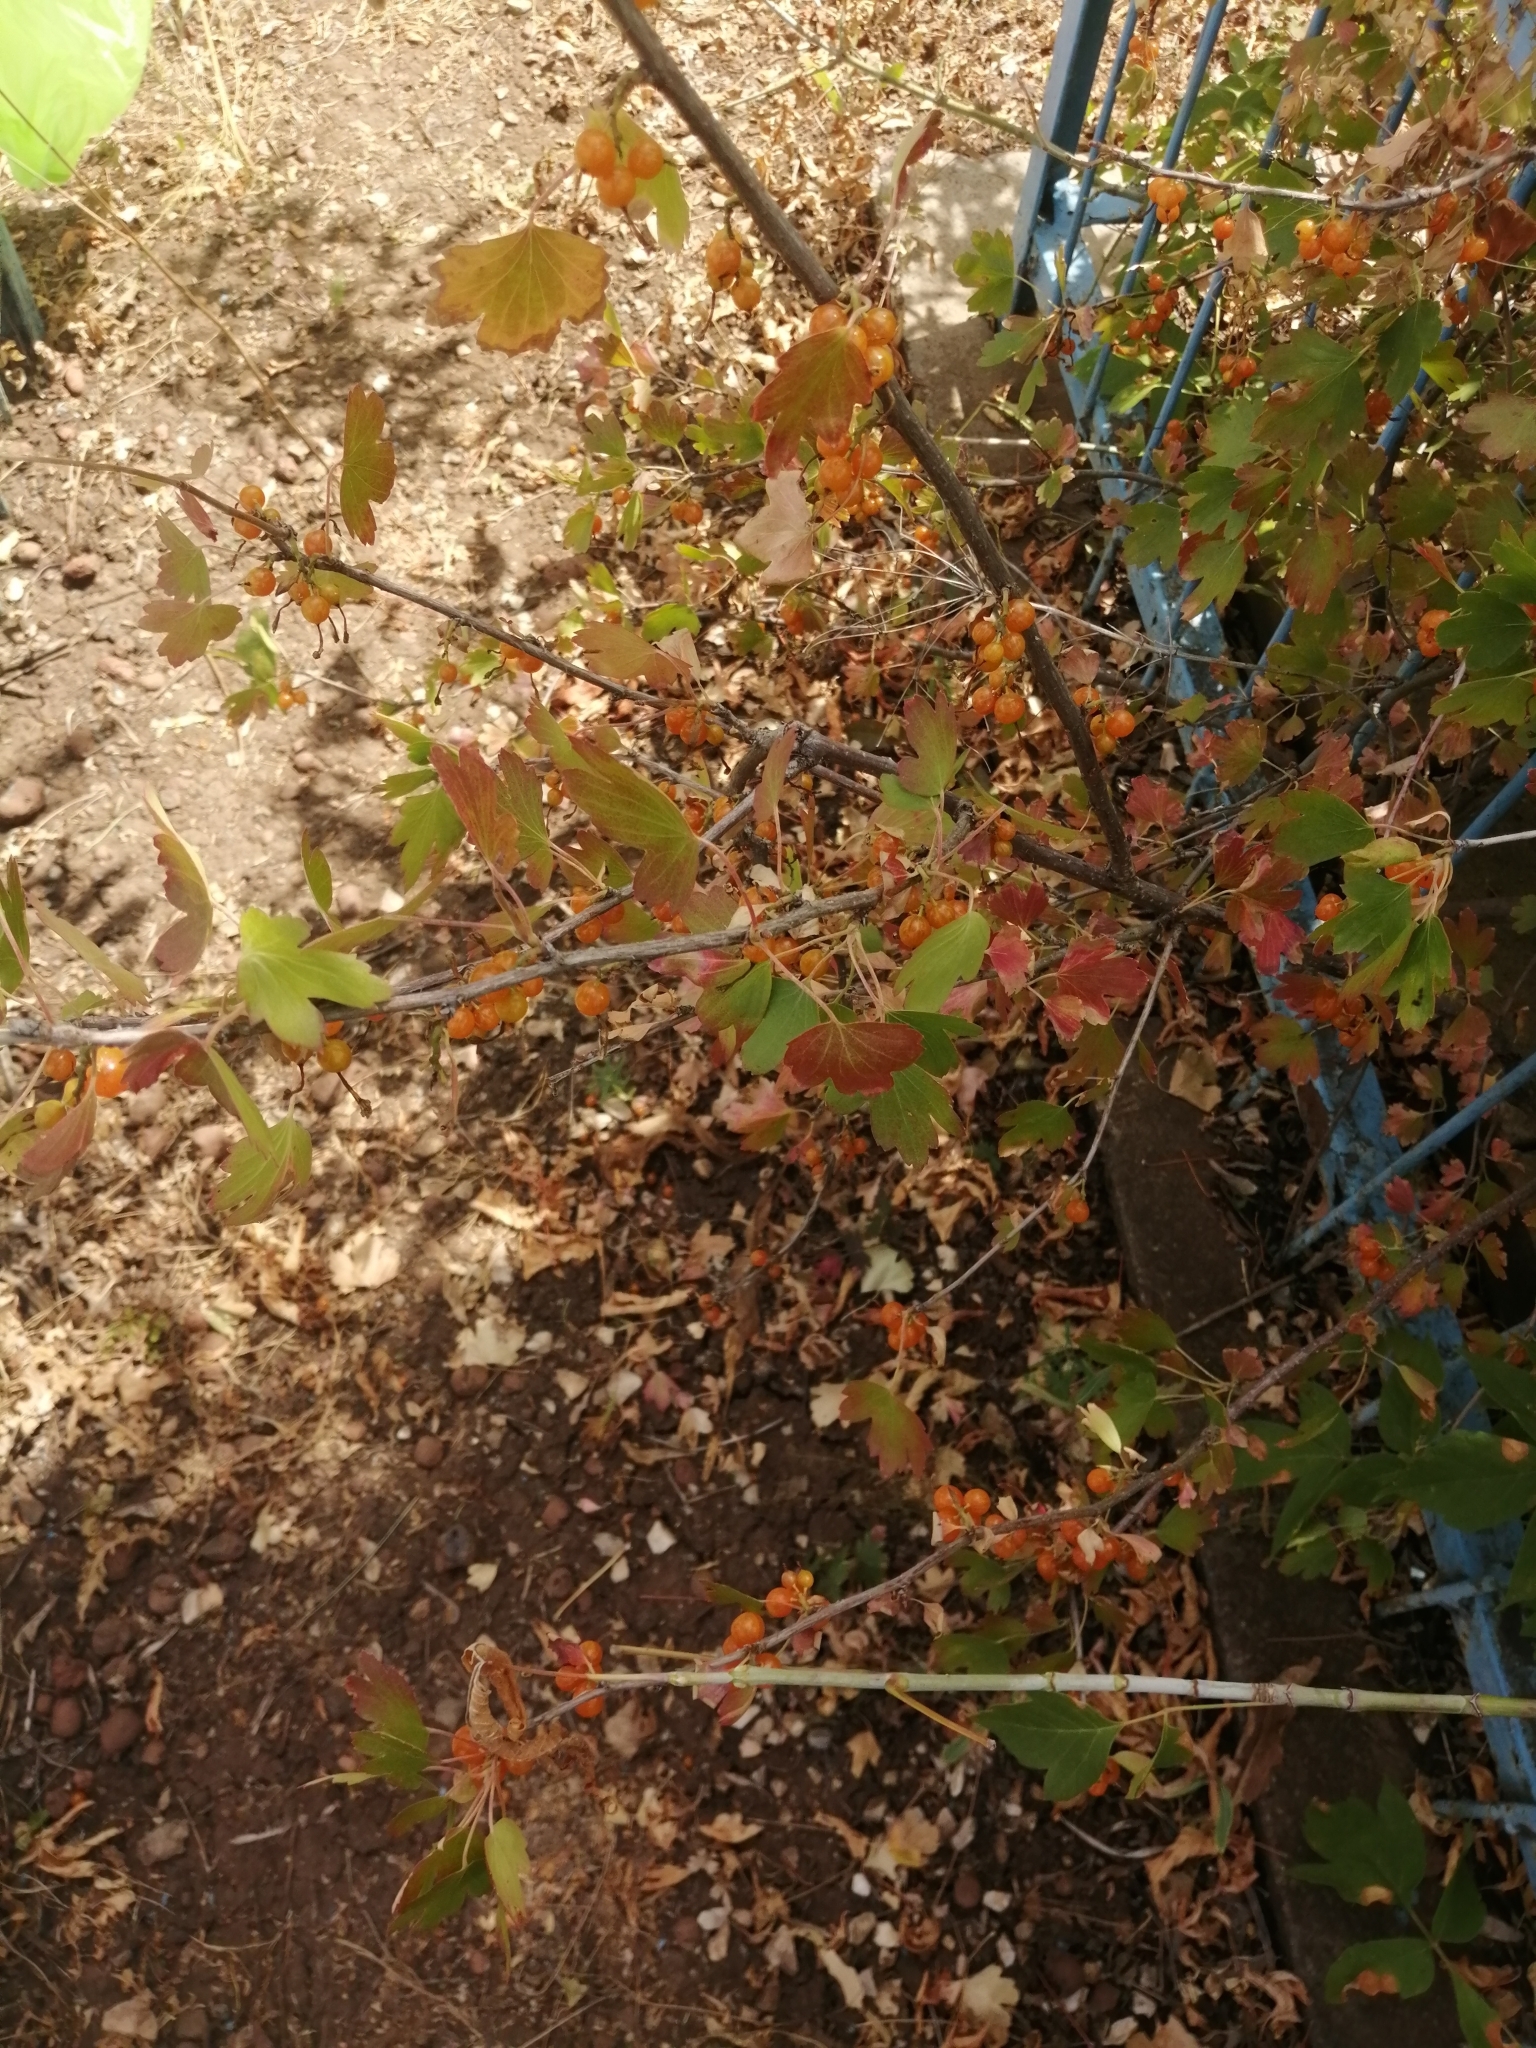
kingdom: Plantae
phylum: Tracheophyta
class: Magnoliopsida
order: Saxifragales
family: Grossulariaceae
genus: Ribes
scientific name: Ribes aureum
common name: Golden currant
